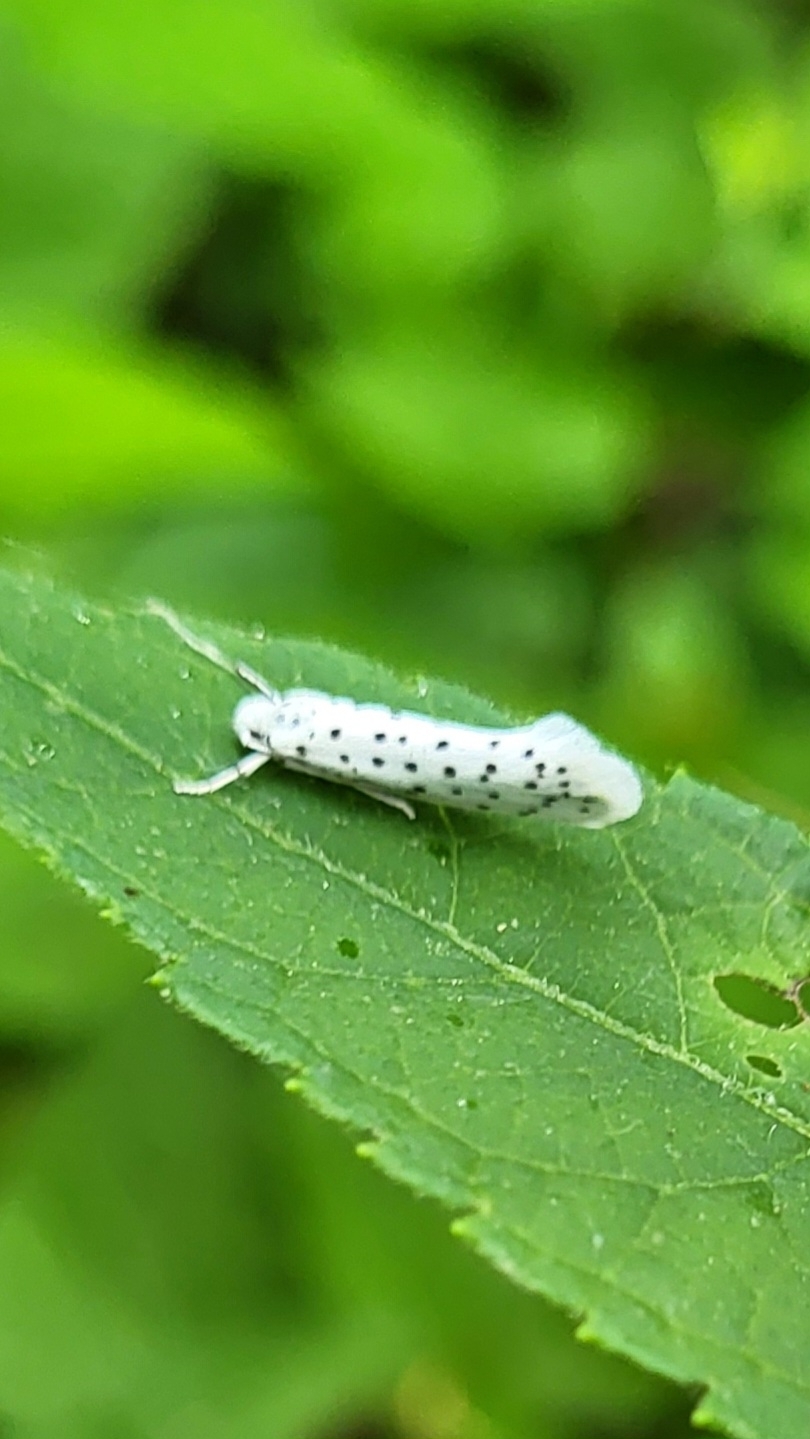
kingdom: Animalia
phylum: Arthropoda
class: Insecta
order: Lepidoptera
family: Yponomeutidae
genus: Yponomeuta
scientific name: Yponomeuta multipunctella
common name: American ermine moth
